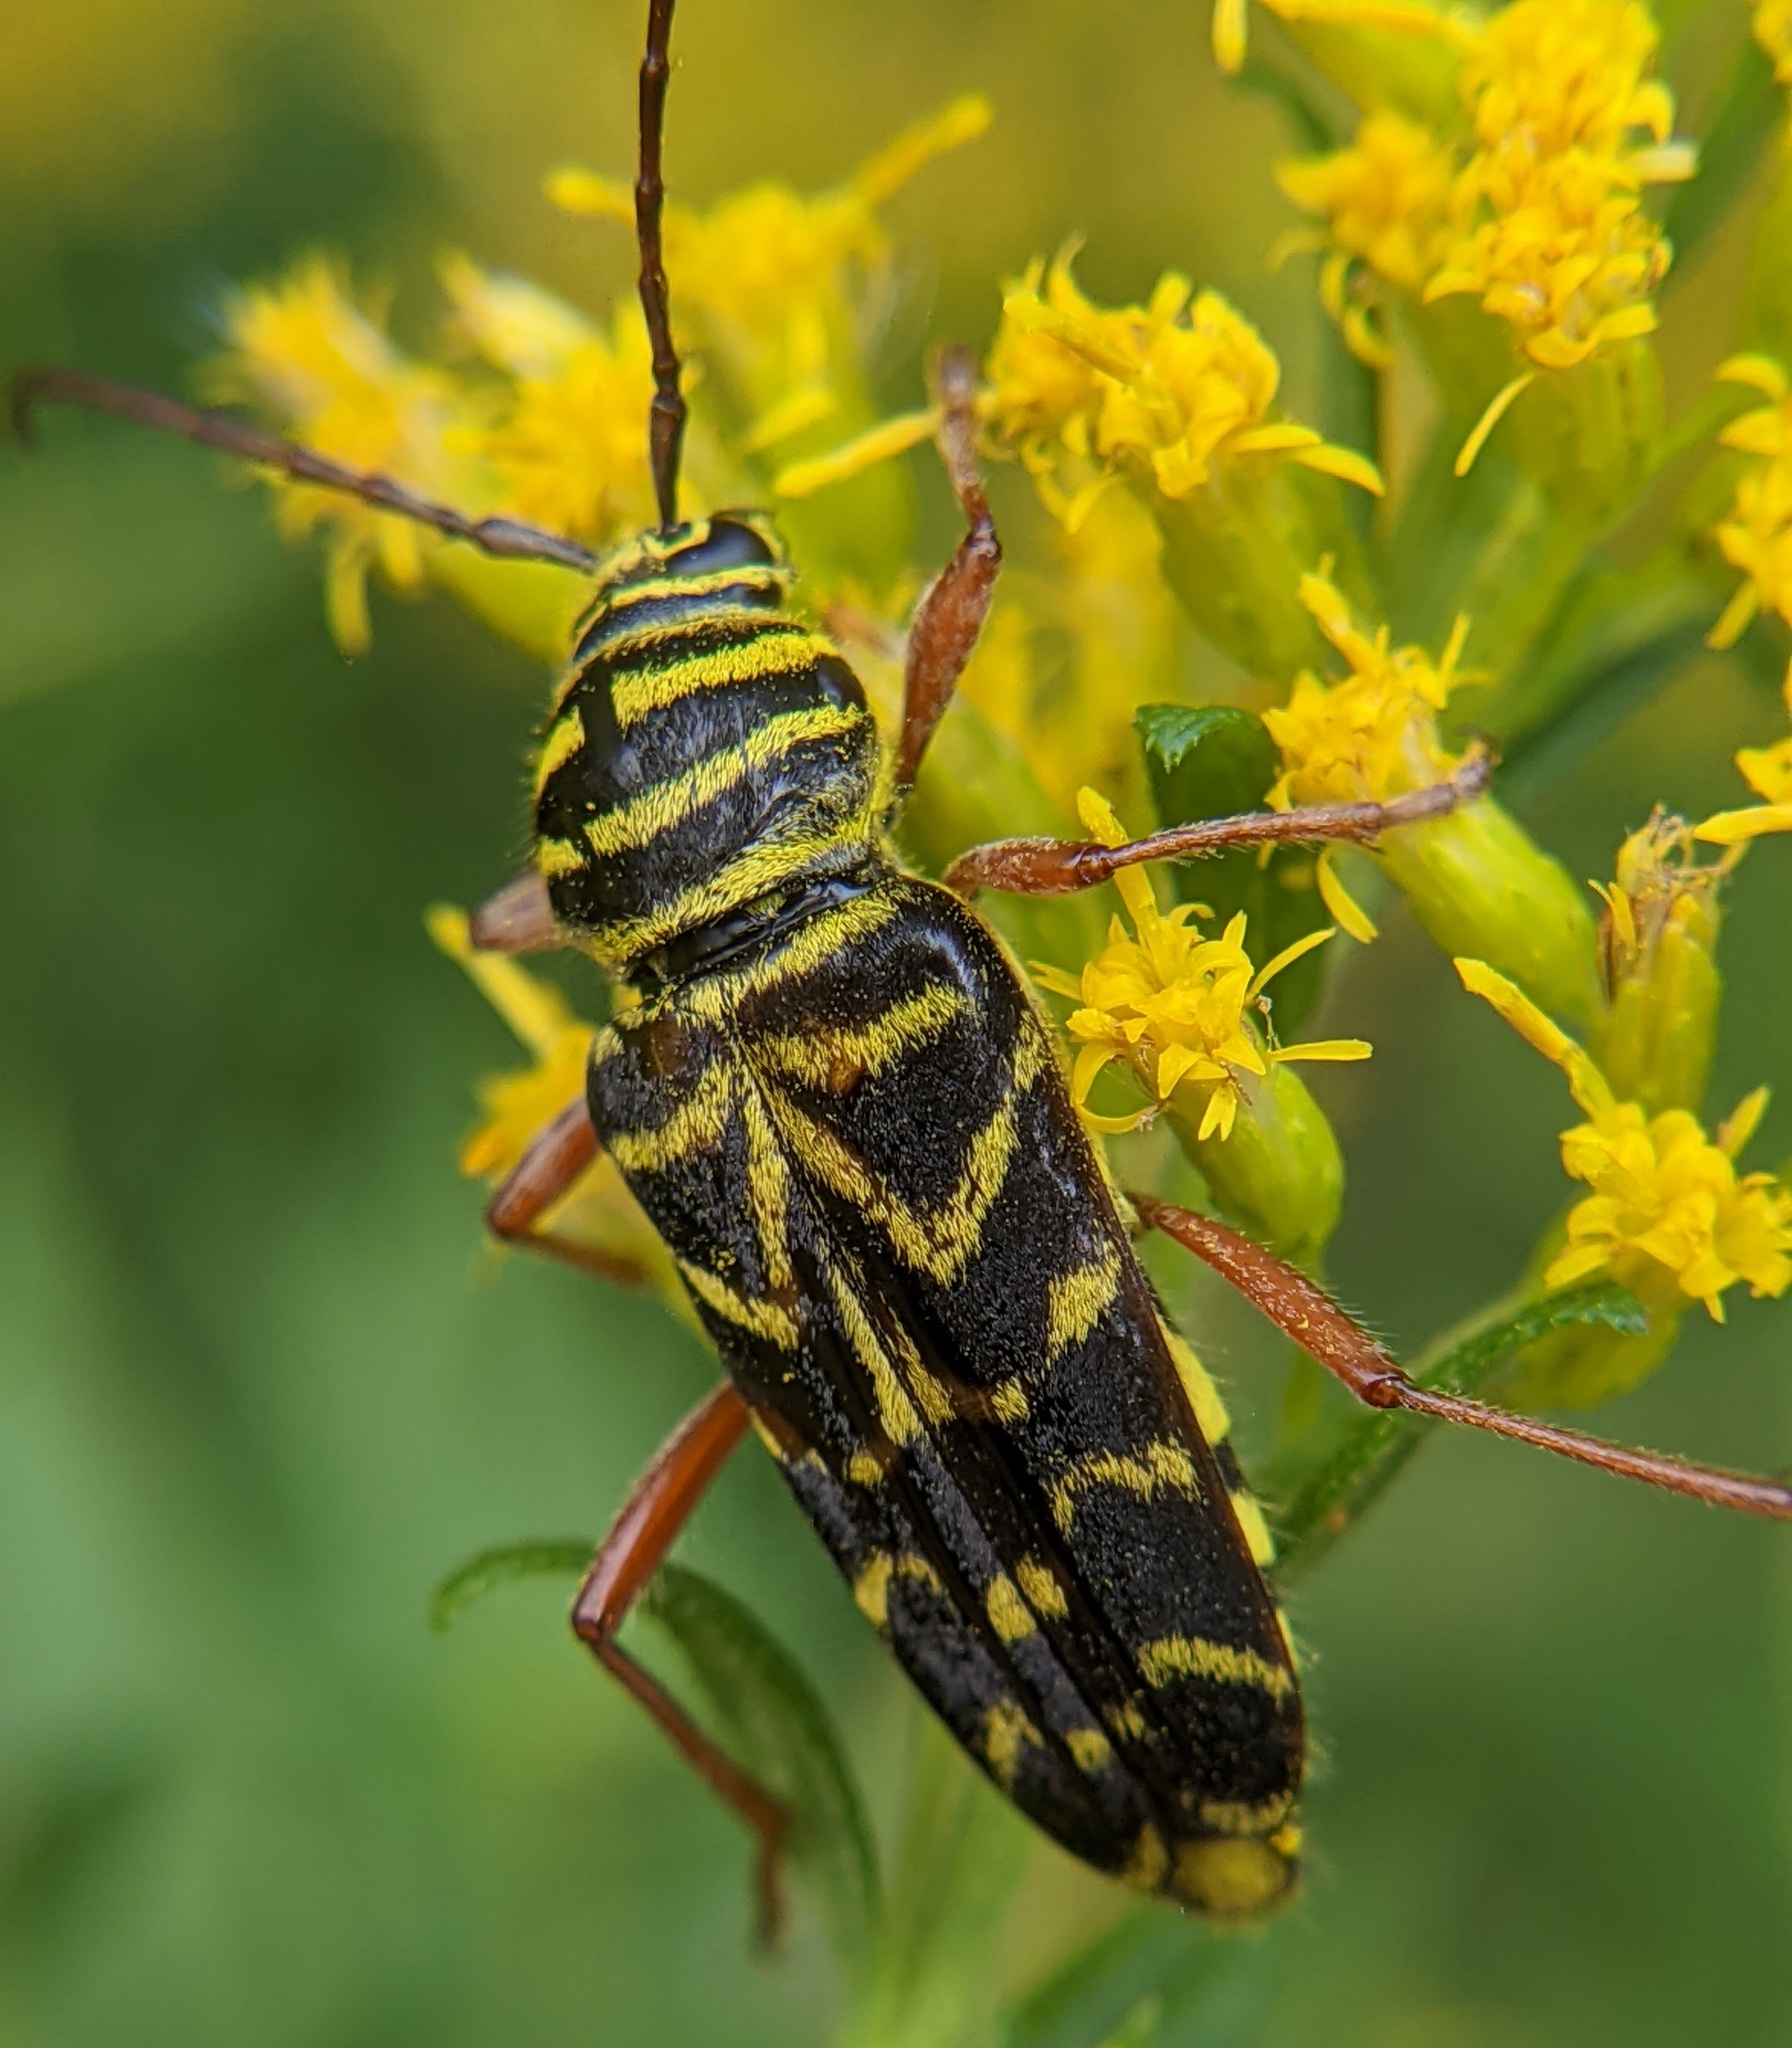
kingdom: Animalia
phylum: Arthropoda
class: Insecta
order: Coleoptera
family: Cerambycidae
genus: Megacyllene
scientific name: Megacyllene robiniae
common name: Locust borer
